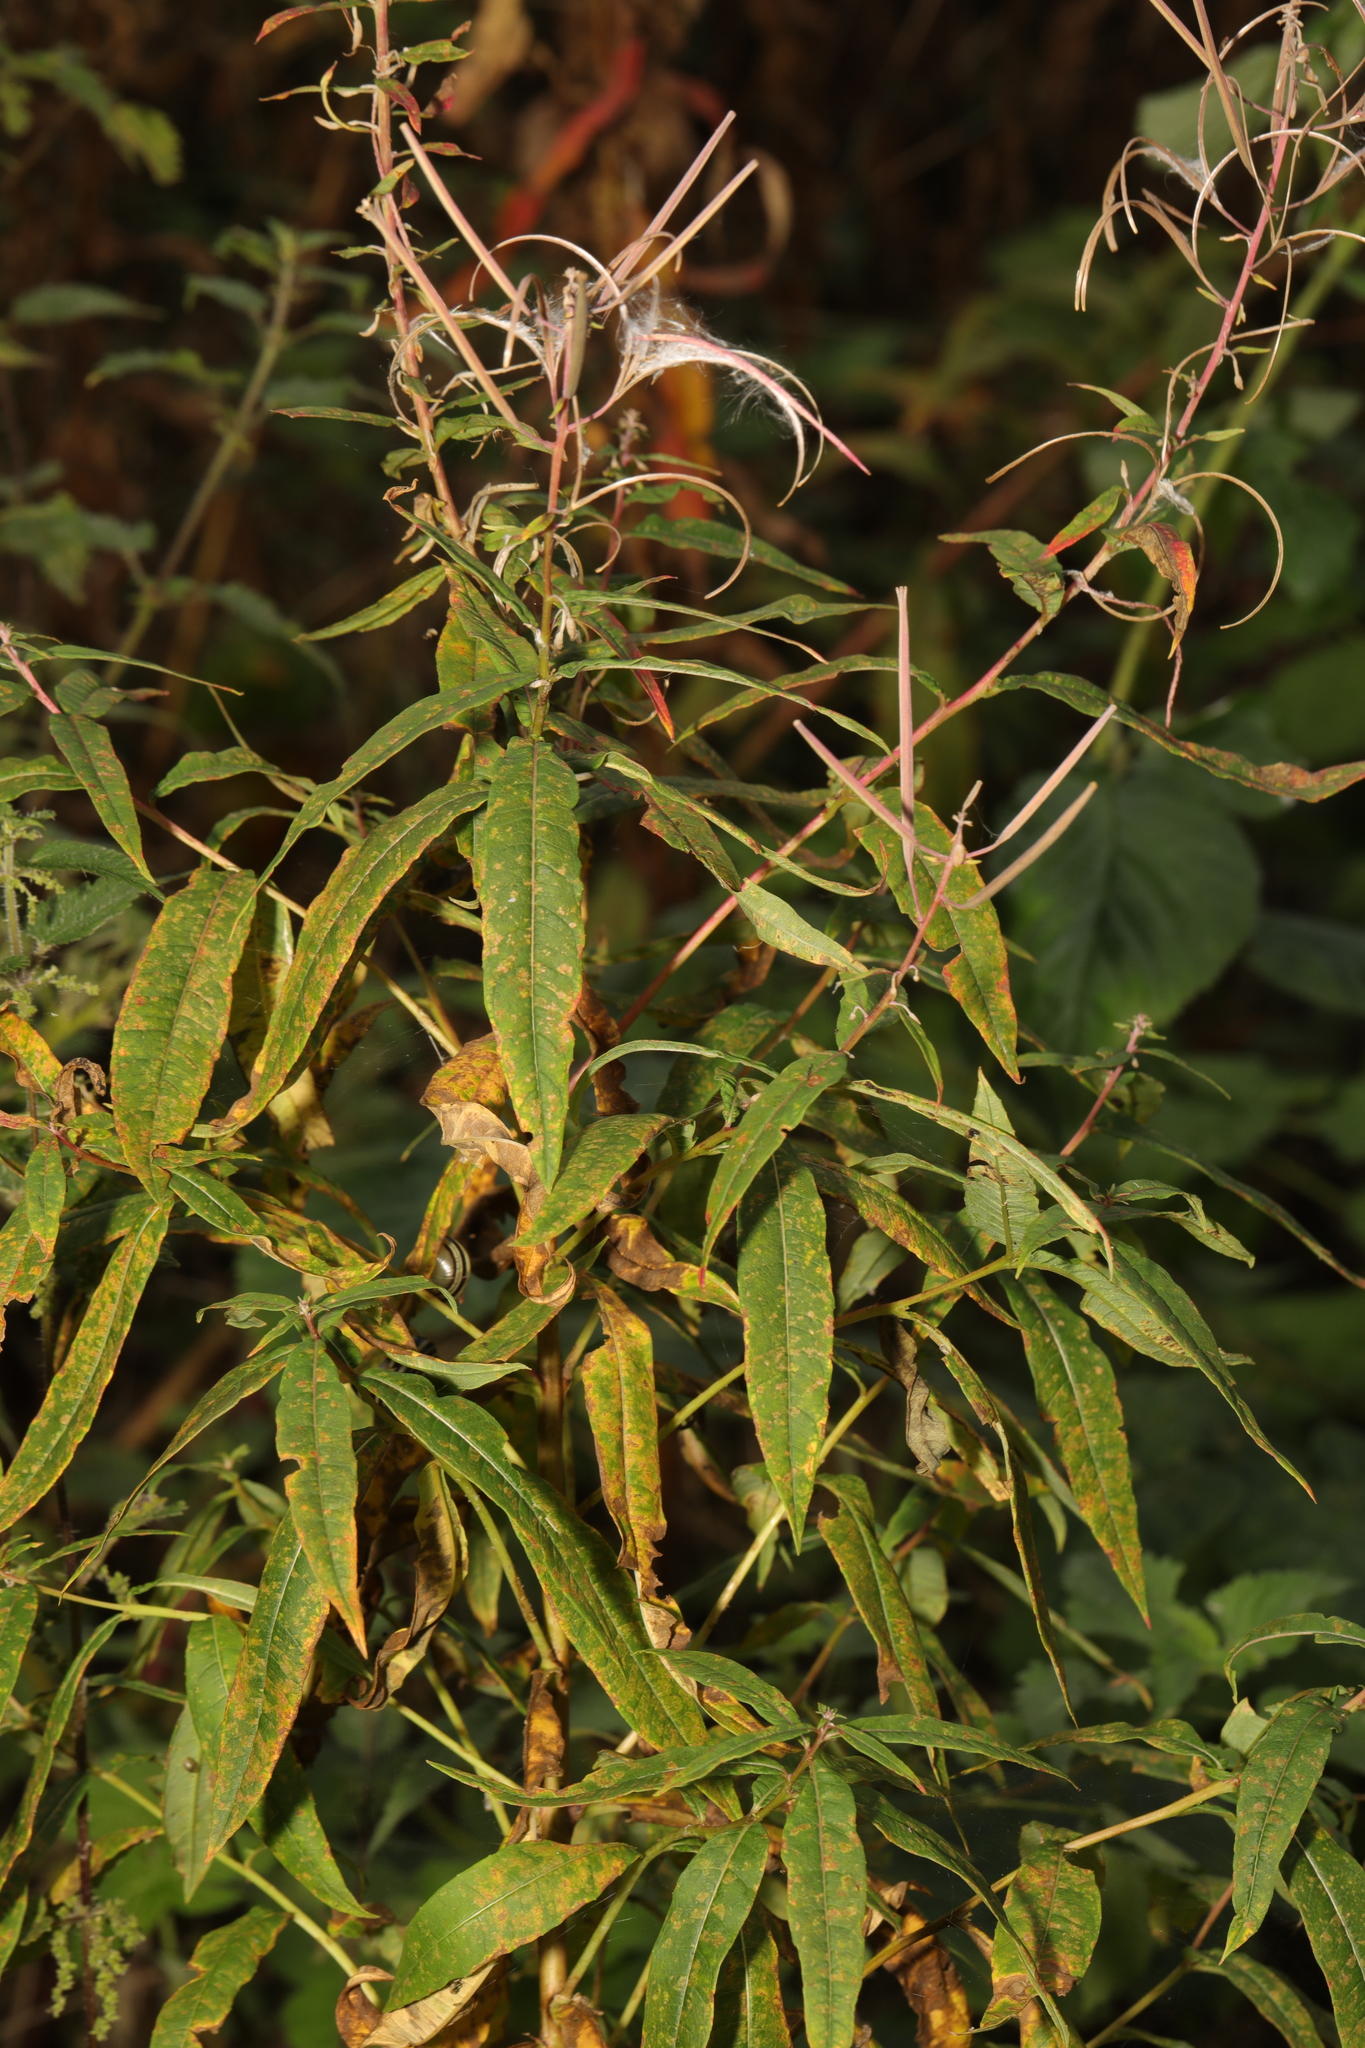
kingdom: Plantae
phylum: Tracheophyta
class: Magnoliopsida
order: Myrtales
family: Onagraceae
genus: Chamaenerion
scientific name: Chamaenerion angustifolium
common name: Fireweed
